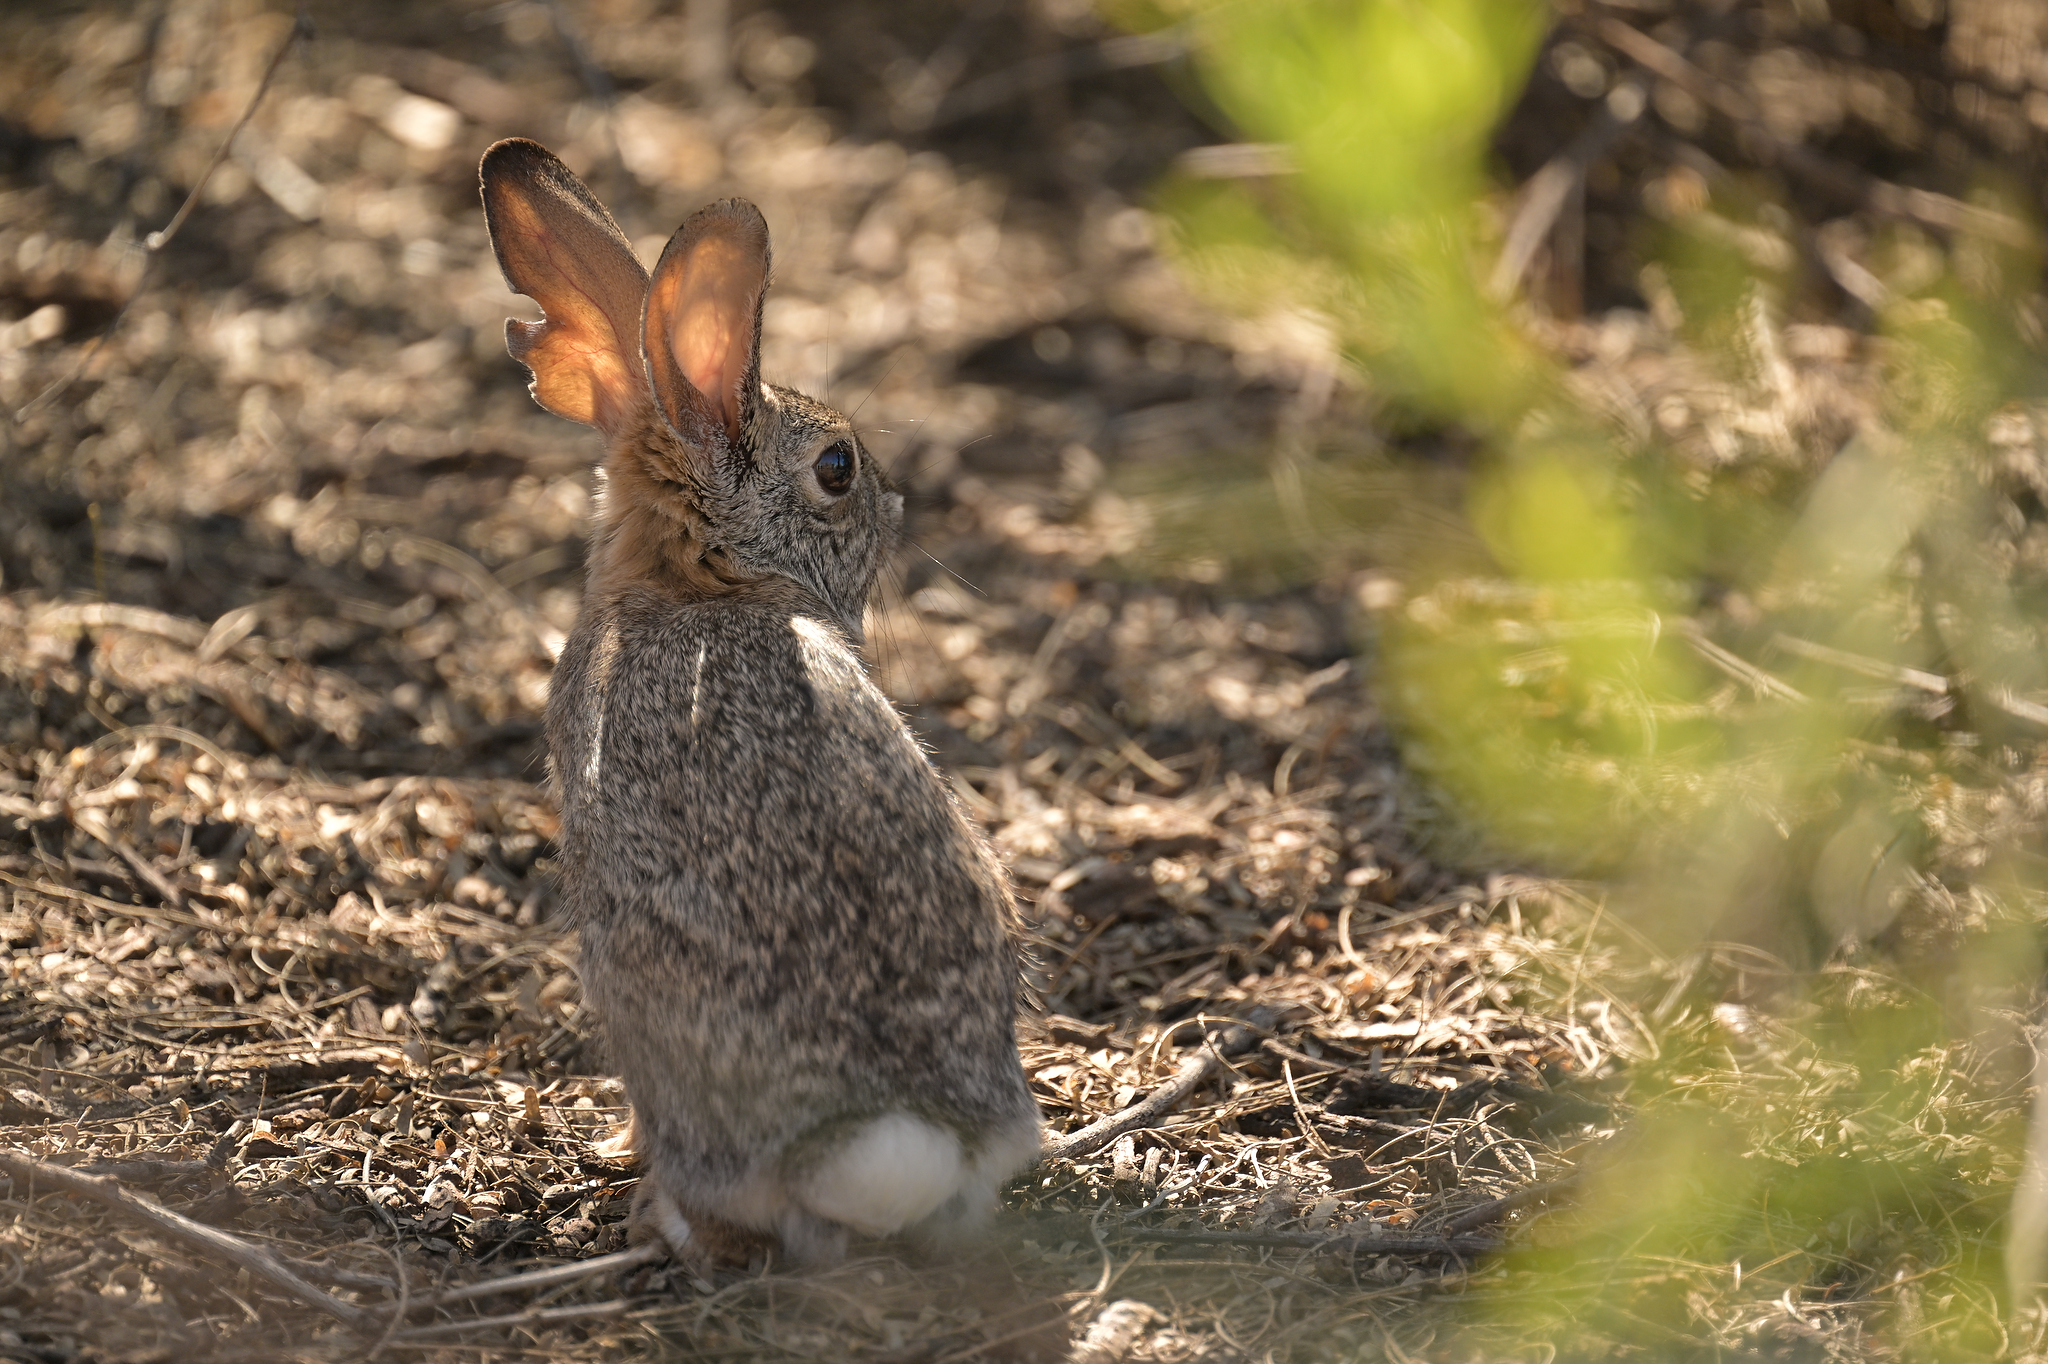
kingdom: Animalia
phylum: Chordata
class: Mammalia
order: Lagomorpha
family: Leporidae
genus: Sylvilagus
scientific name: Sylvilagus audubonii
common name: Desert cottontail
